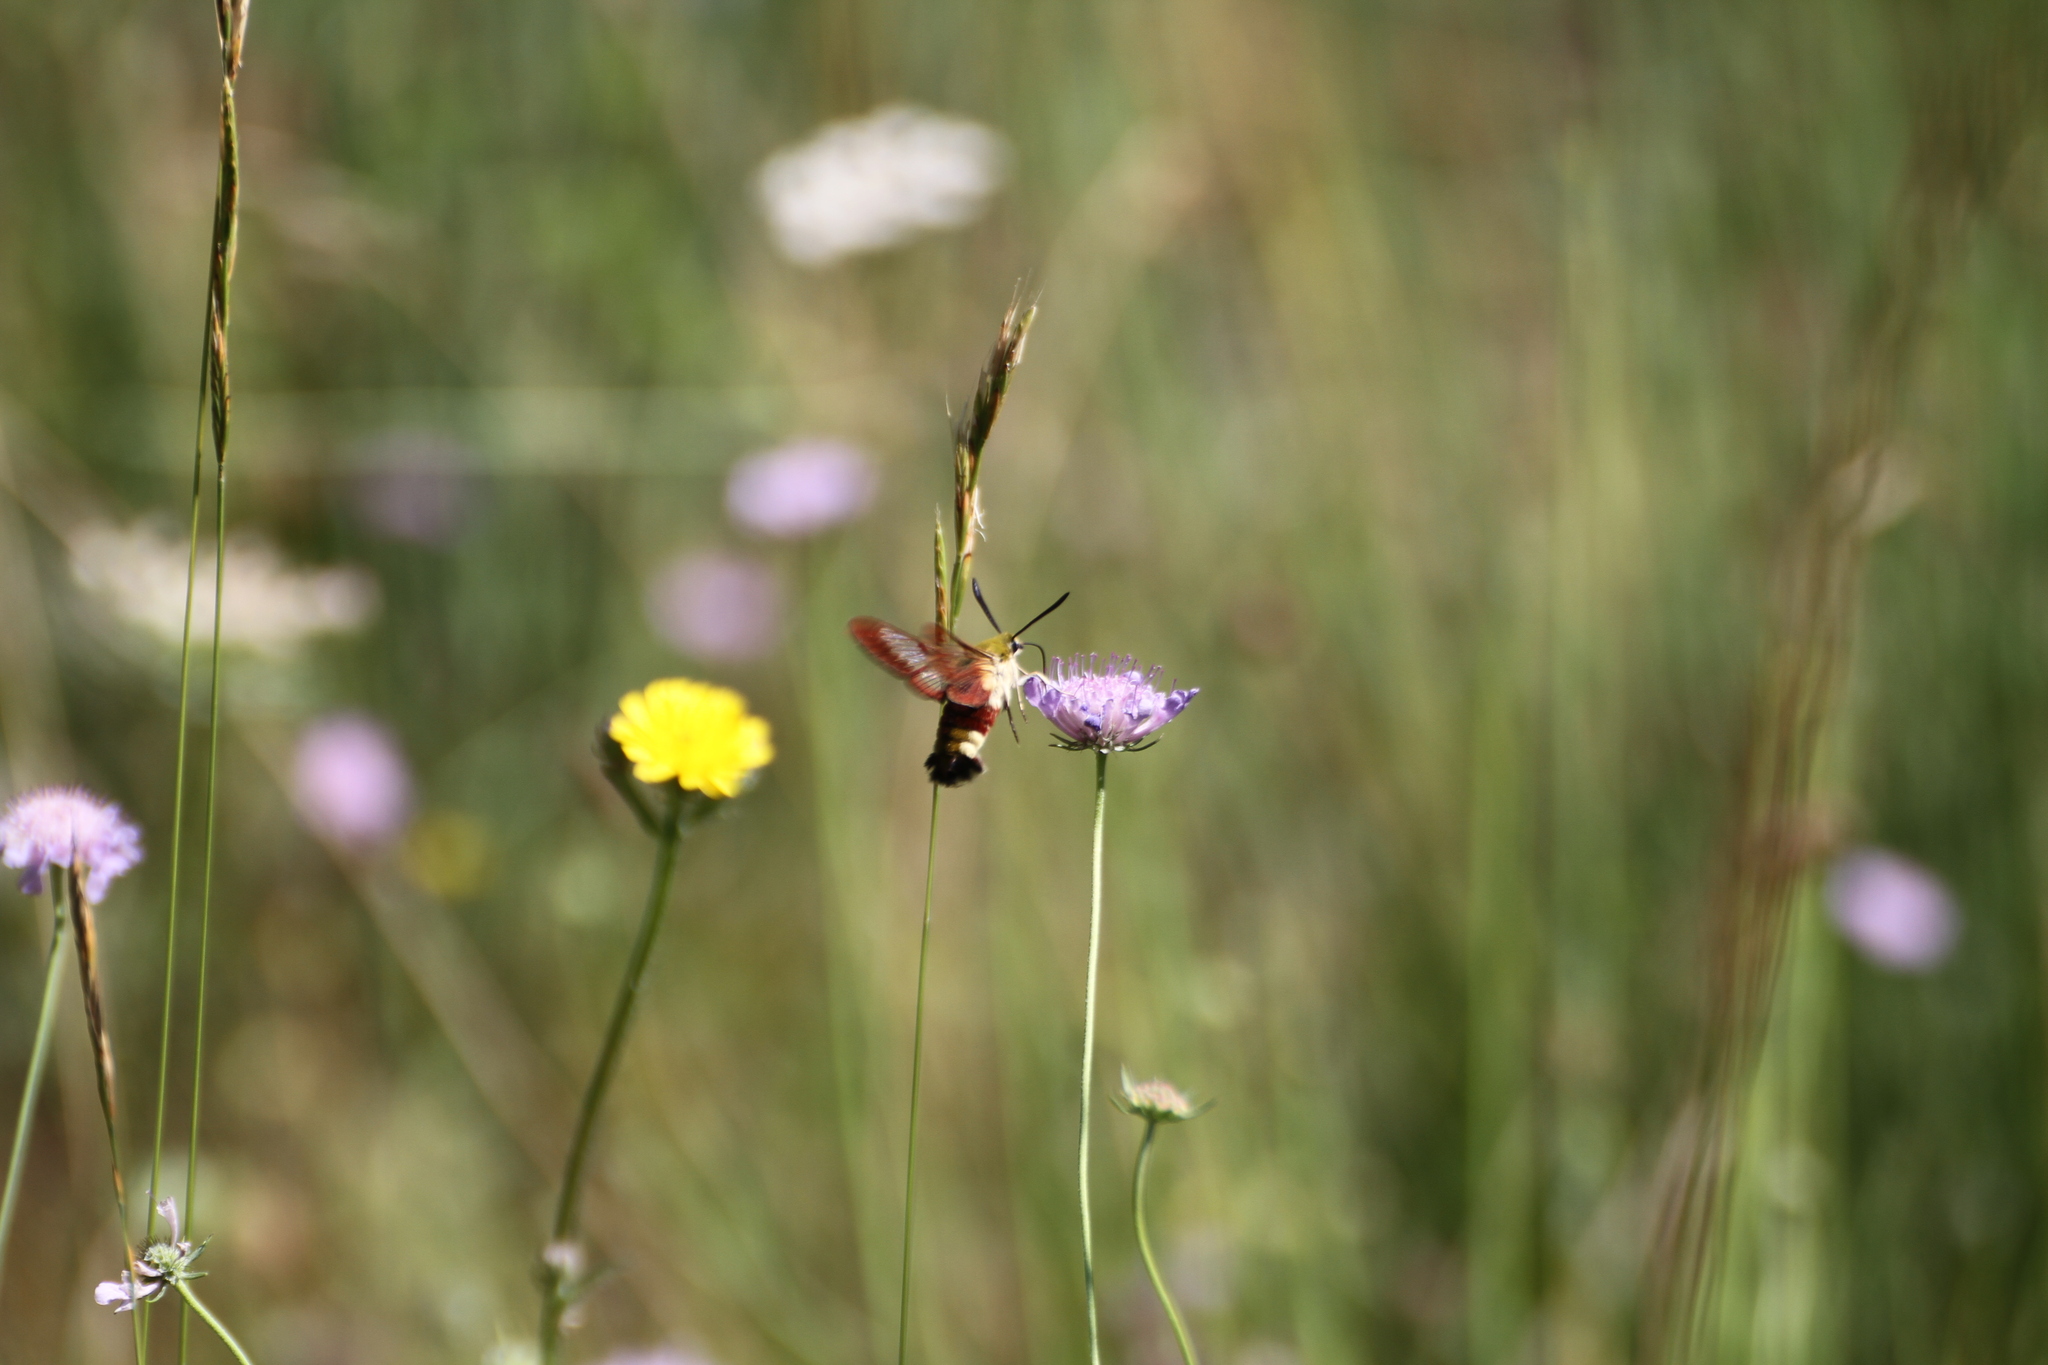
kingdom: Animalia
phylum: Arthropoda
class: Insecta
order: Lepidoptera
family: Sphingidae
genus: Hemaris
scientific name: Hemaris fuciformis
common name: Broad-bordered bee hawk-moth
